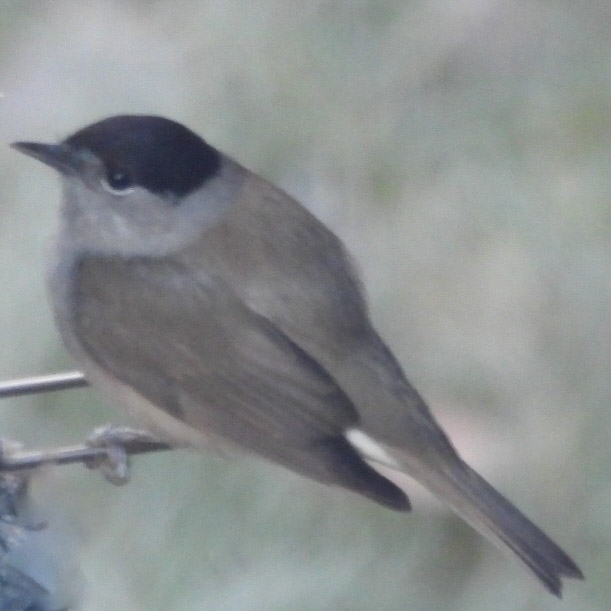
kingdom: Animalia
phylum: Chordata
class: Aves
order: Passeriformes
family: Sylviidae
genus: Sylvia
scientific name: Sylvia atricapilla
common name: Eurasian blackcap
